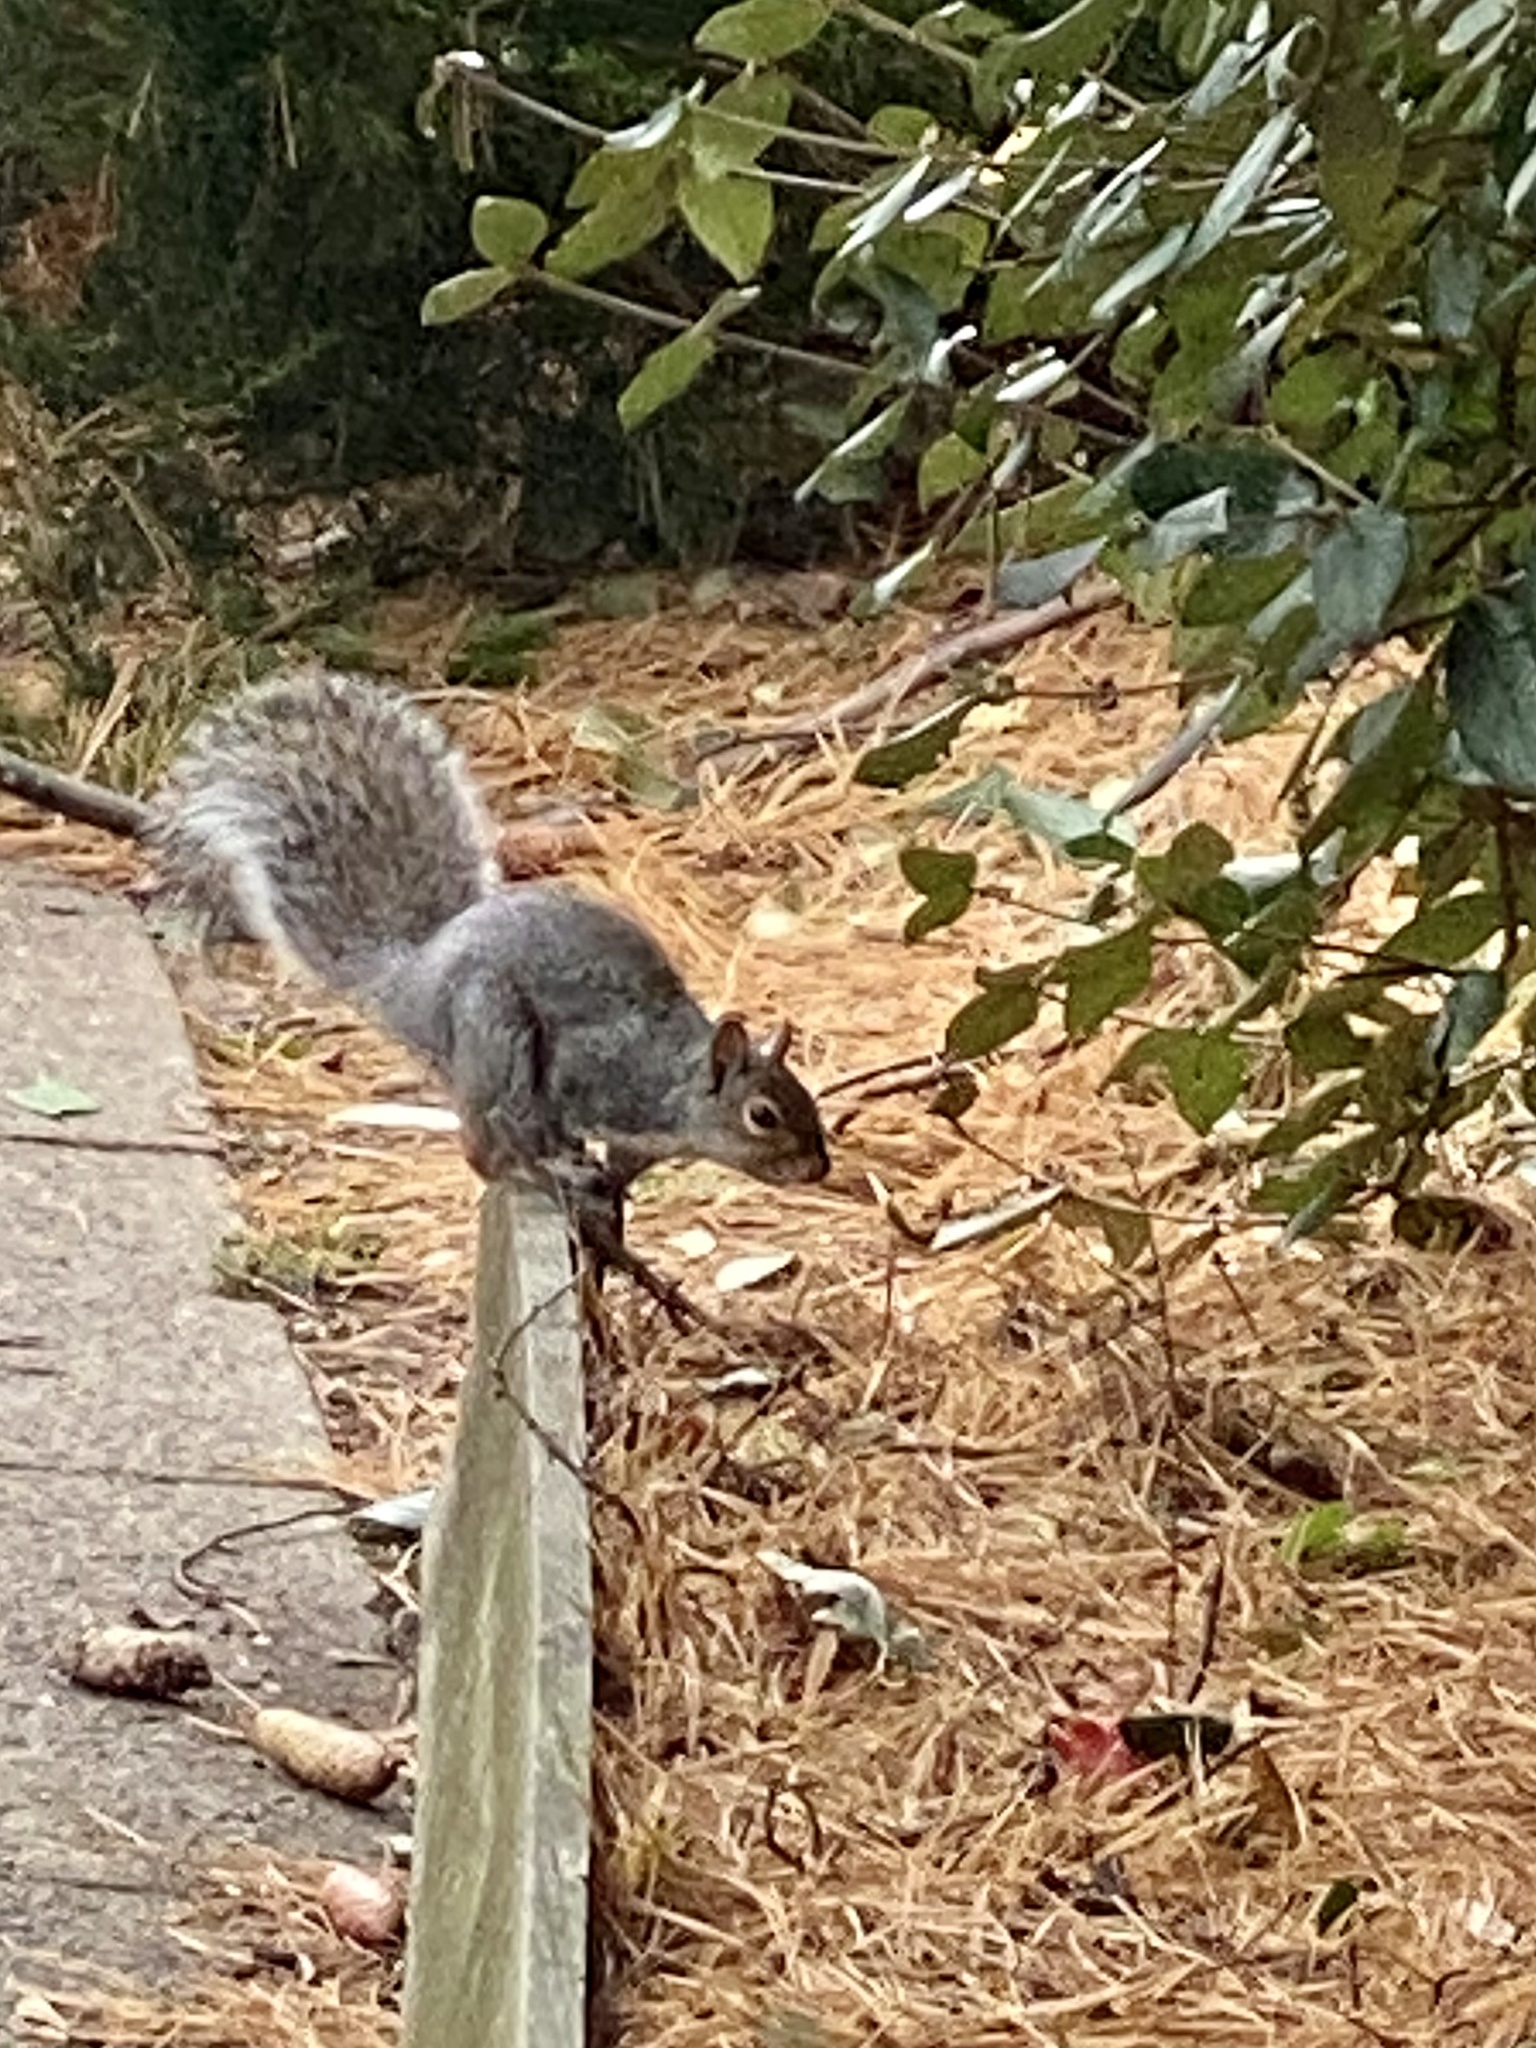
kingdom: Animalia
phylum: Chordata
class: Mammalia
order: Rodentia
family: Sciuridae
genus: Sciurus
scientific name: Sciurus carolinensis
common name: Eastern gray squirrel
